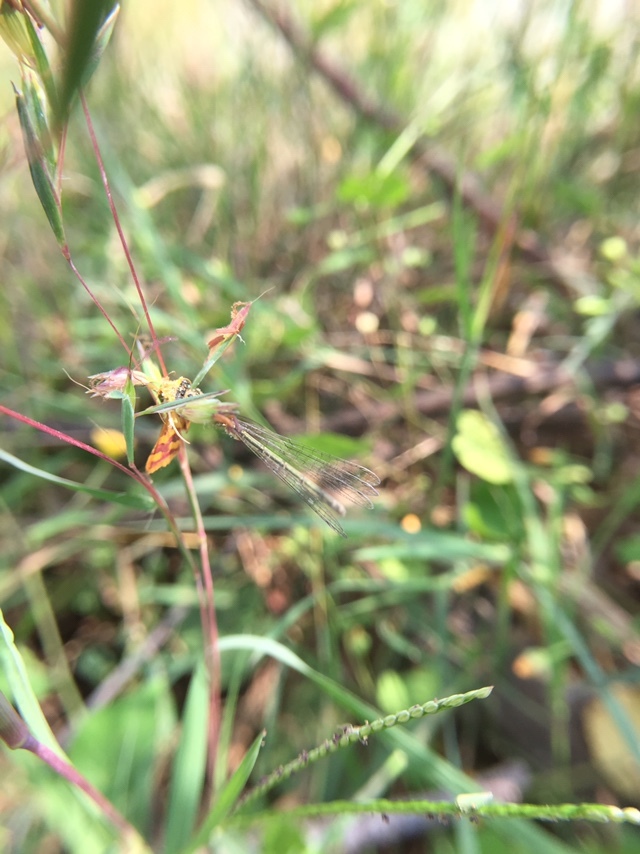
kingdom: Animalia
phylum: Arthropoda
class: Insecta
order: Lepidoptera
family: Crambidae
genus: Pyrausta
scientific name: Pyrausta phoenicealis
